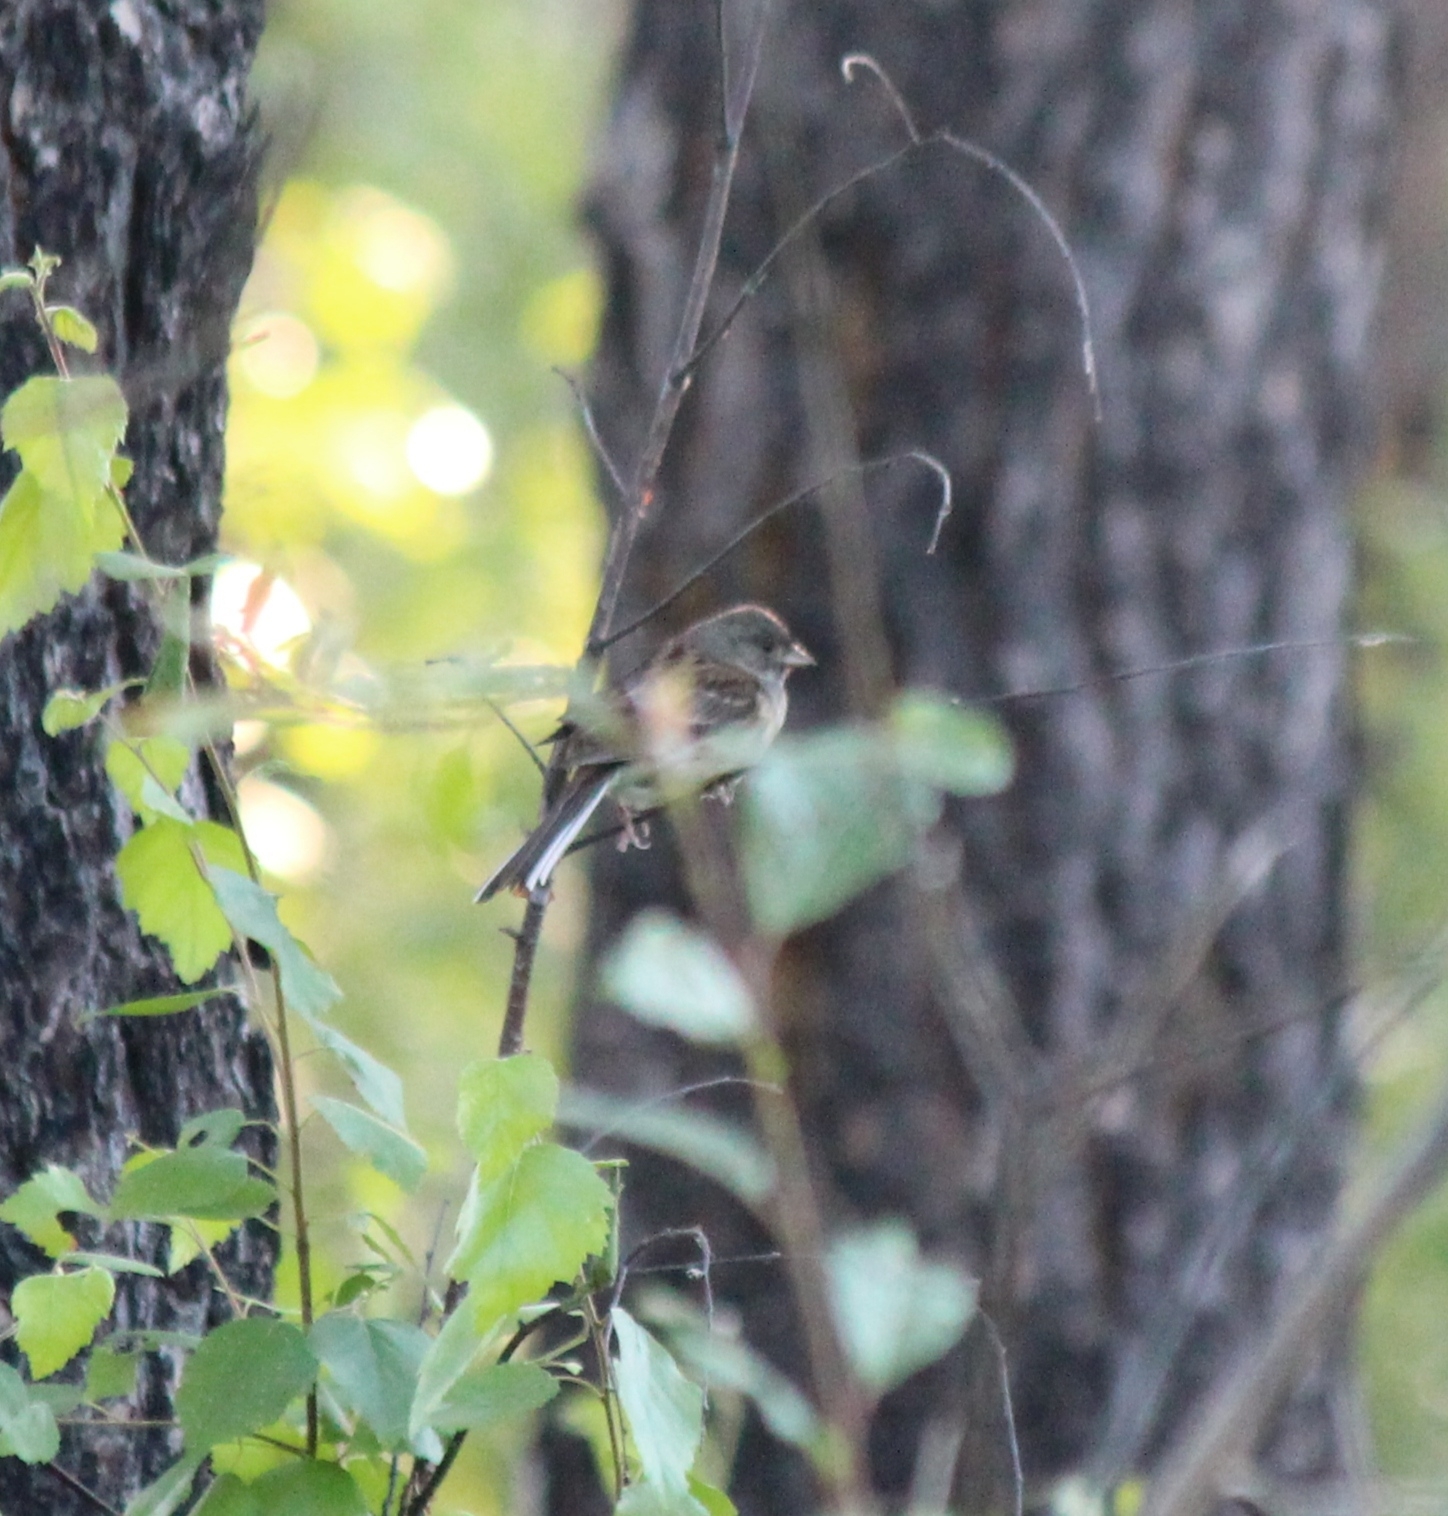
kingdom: Animalia
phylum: Chordata
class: Aves
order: Passeriformes
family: Emberizidae
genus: Emberiza
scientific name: Emberiza spodocephala
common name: Black-faced bunting
